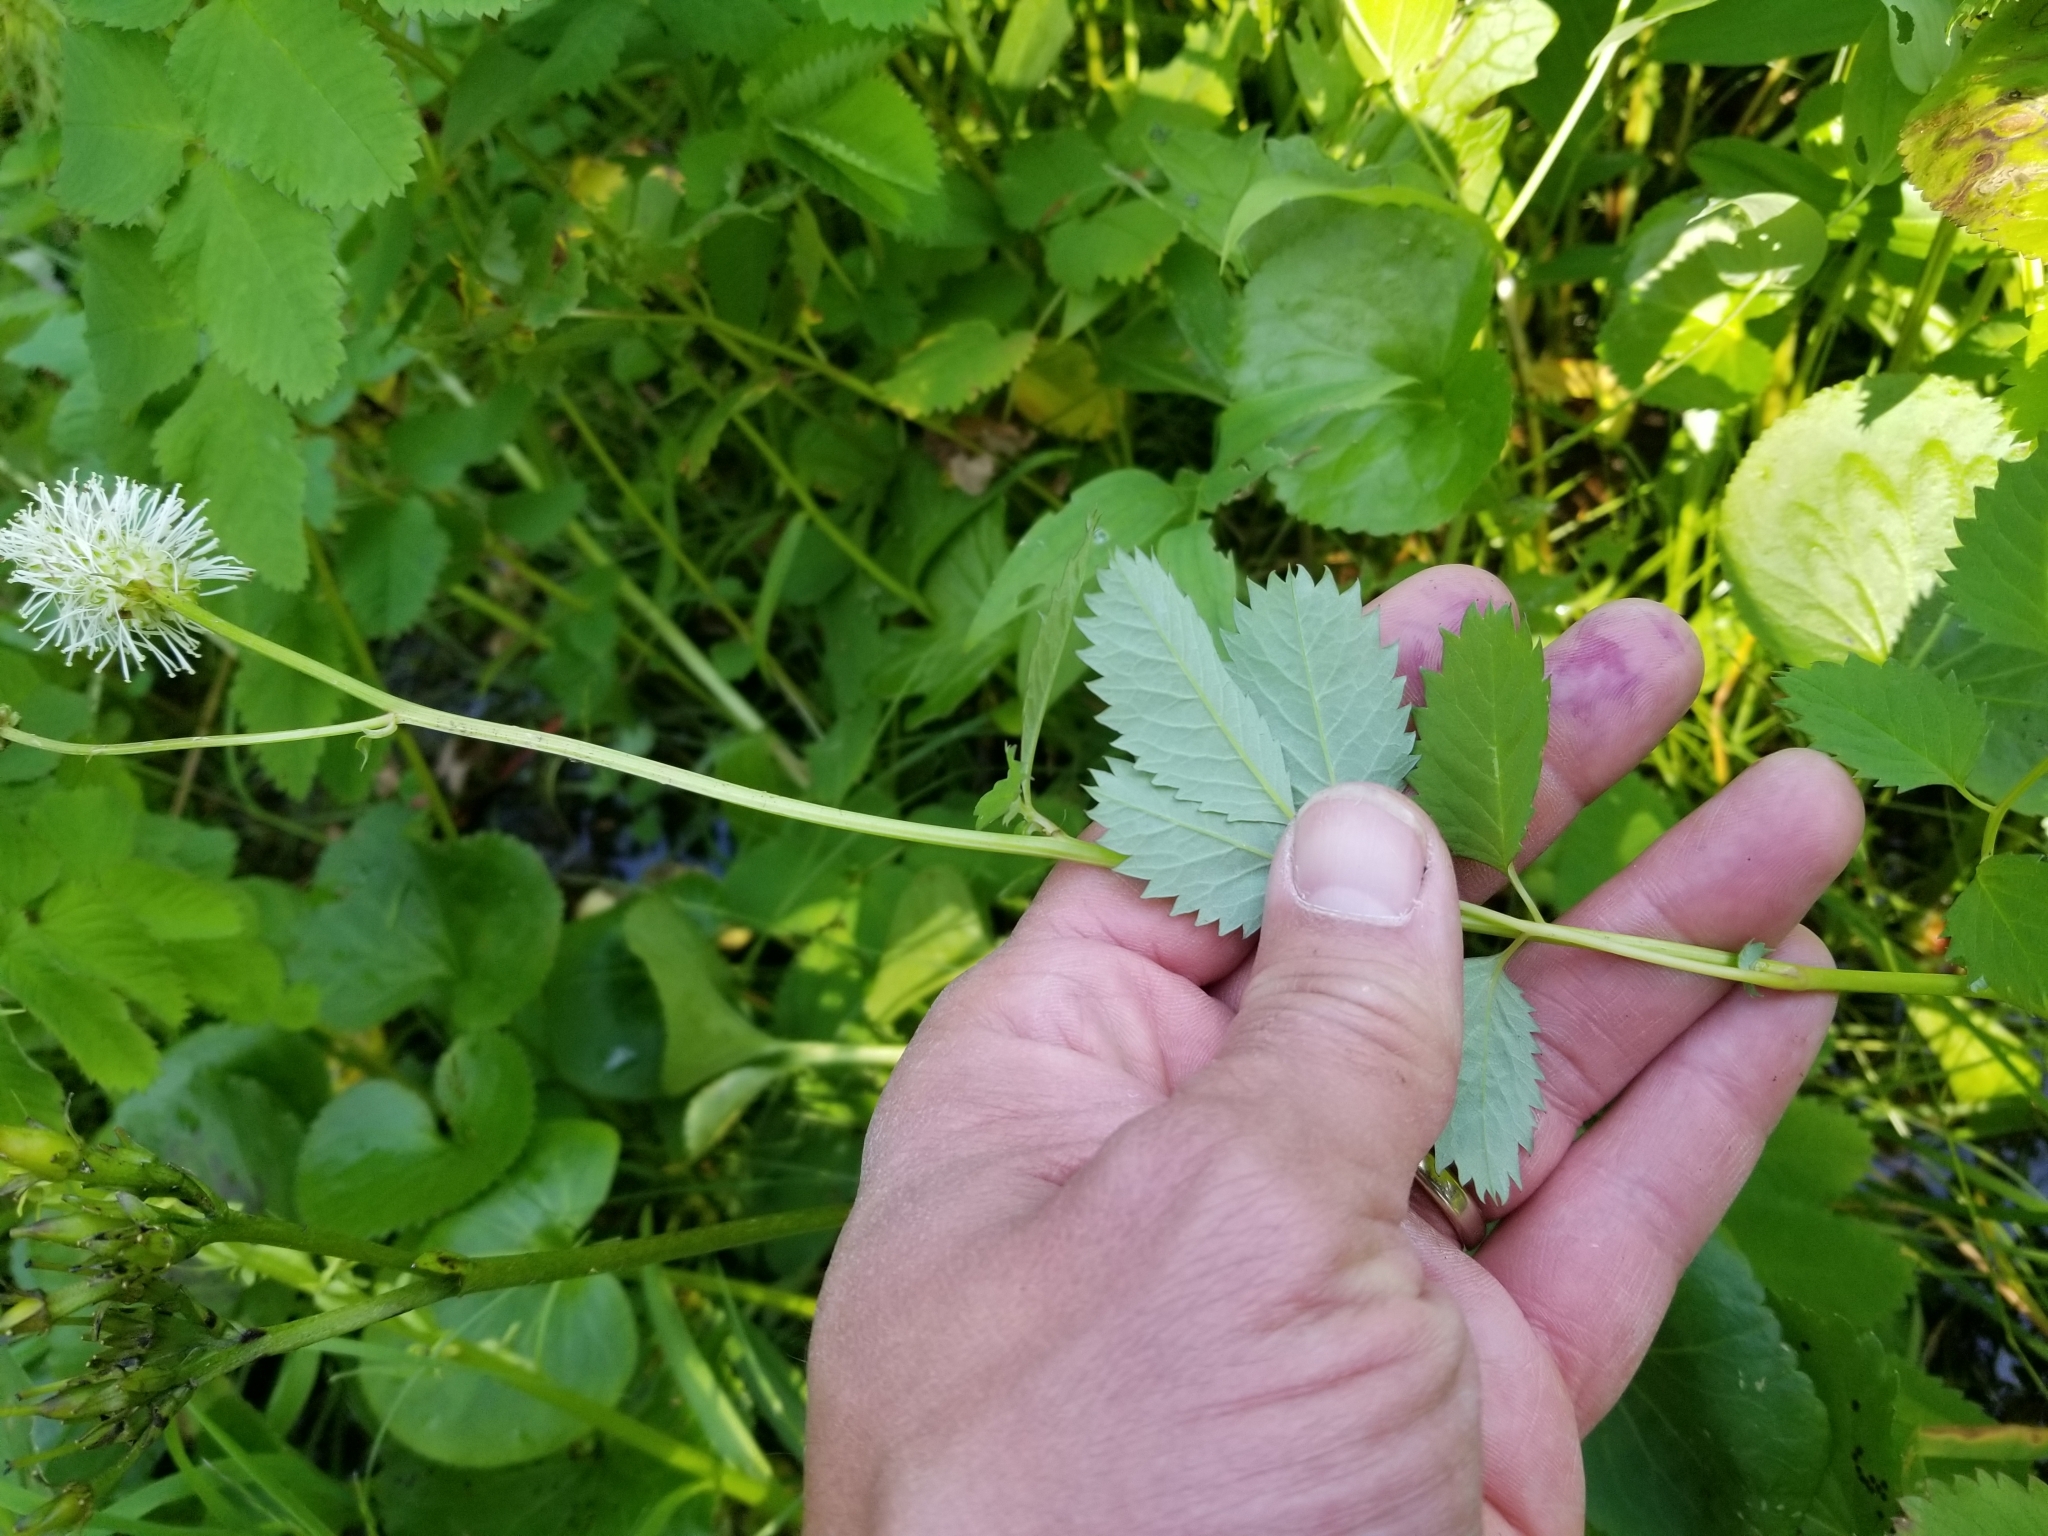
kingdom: Plantae
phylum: Tracheophyta
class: Magnoliopsida
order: Rosales
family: Rosaceae
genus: Sanguisorba
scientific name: Sanguisorba stipulata
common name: Sitka burnet
